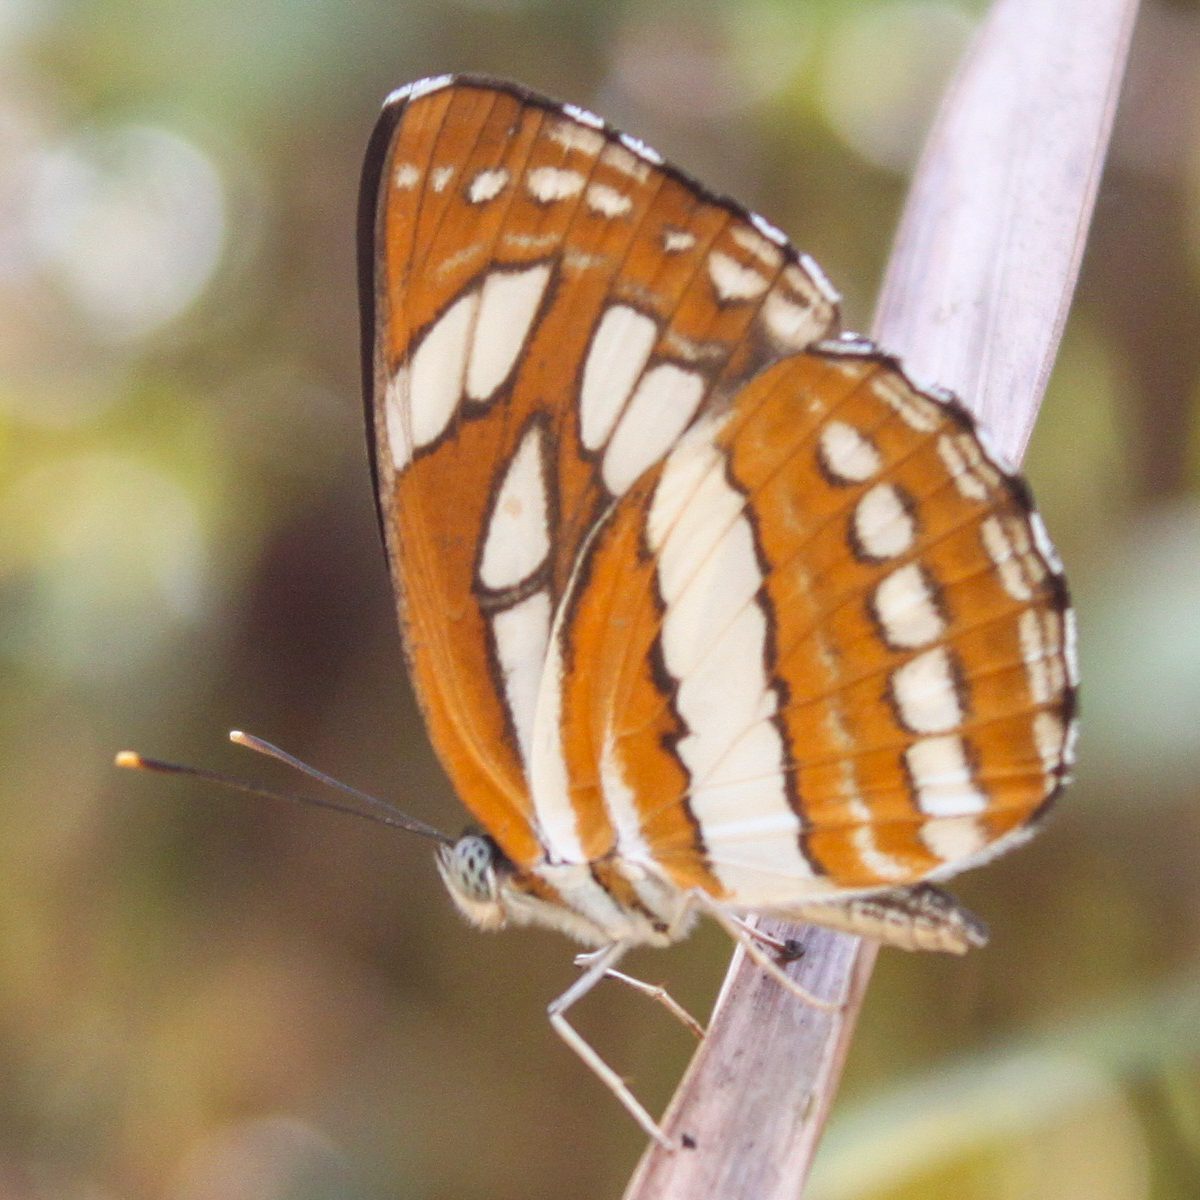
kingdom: Animalia
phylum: Arthropoda
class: Insecta
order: Lepidoptera
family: Nymphalidae
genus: Neptis
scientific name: Neptis hylas
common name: Common sailer
